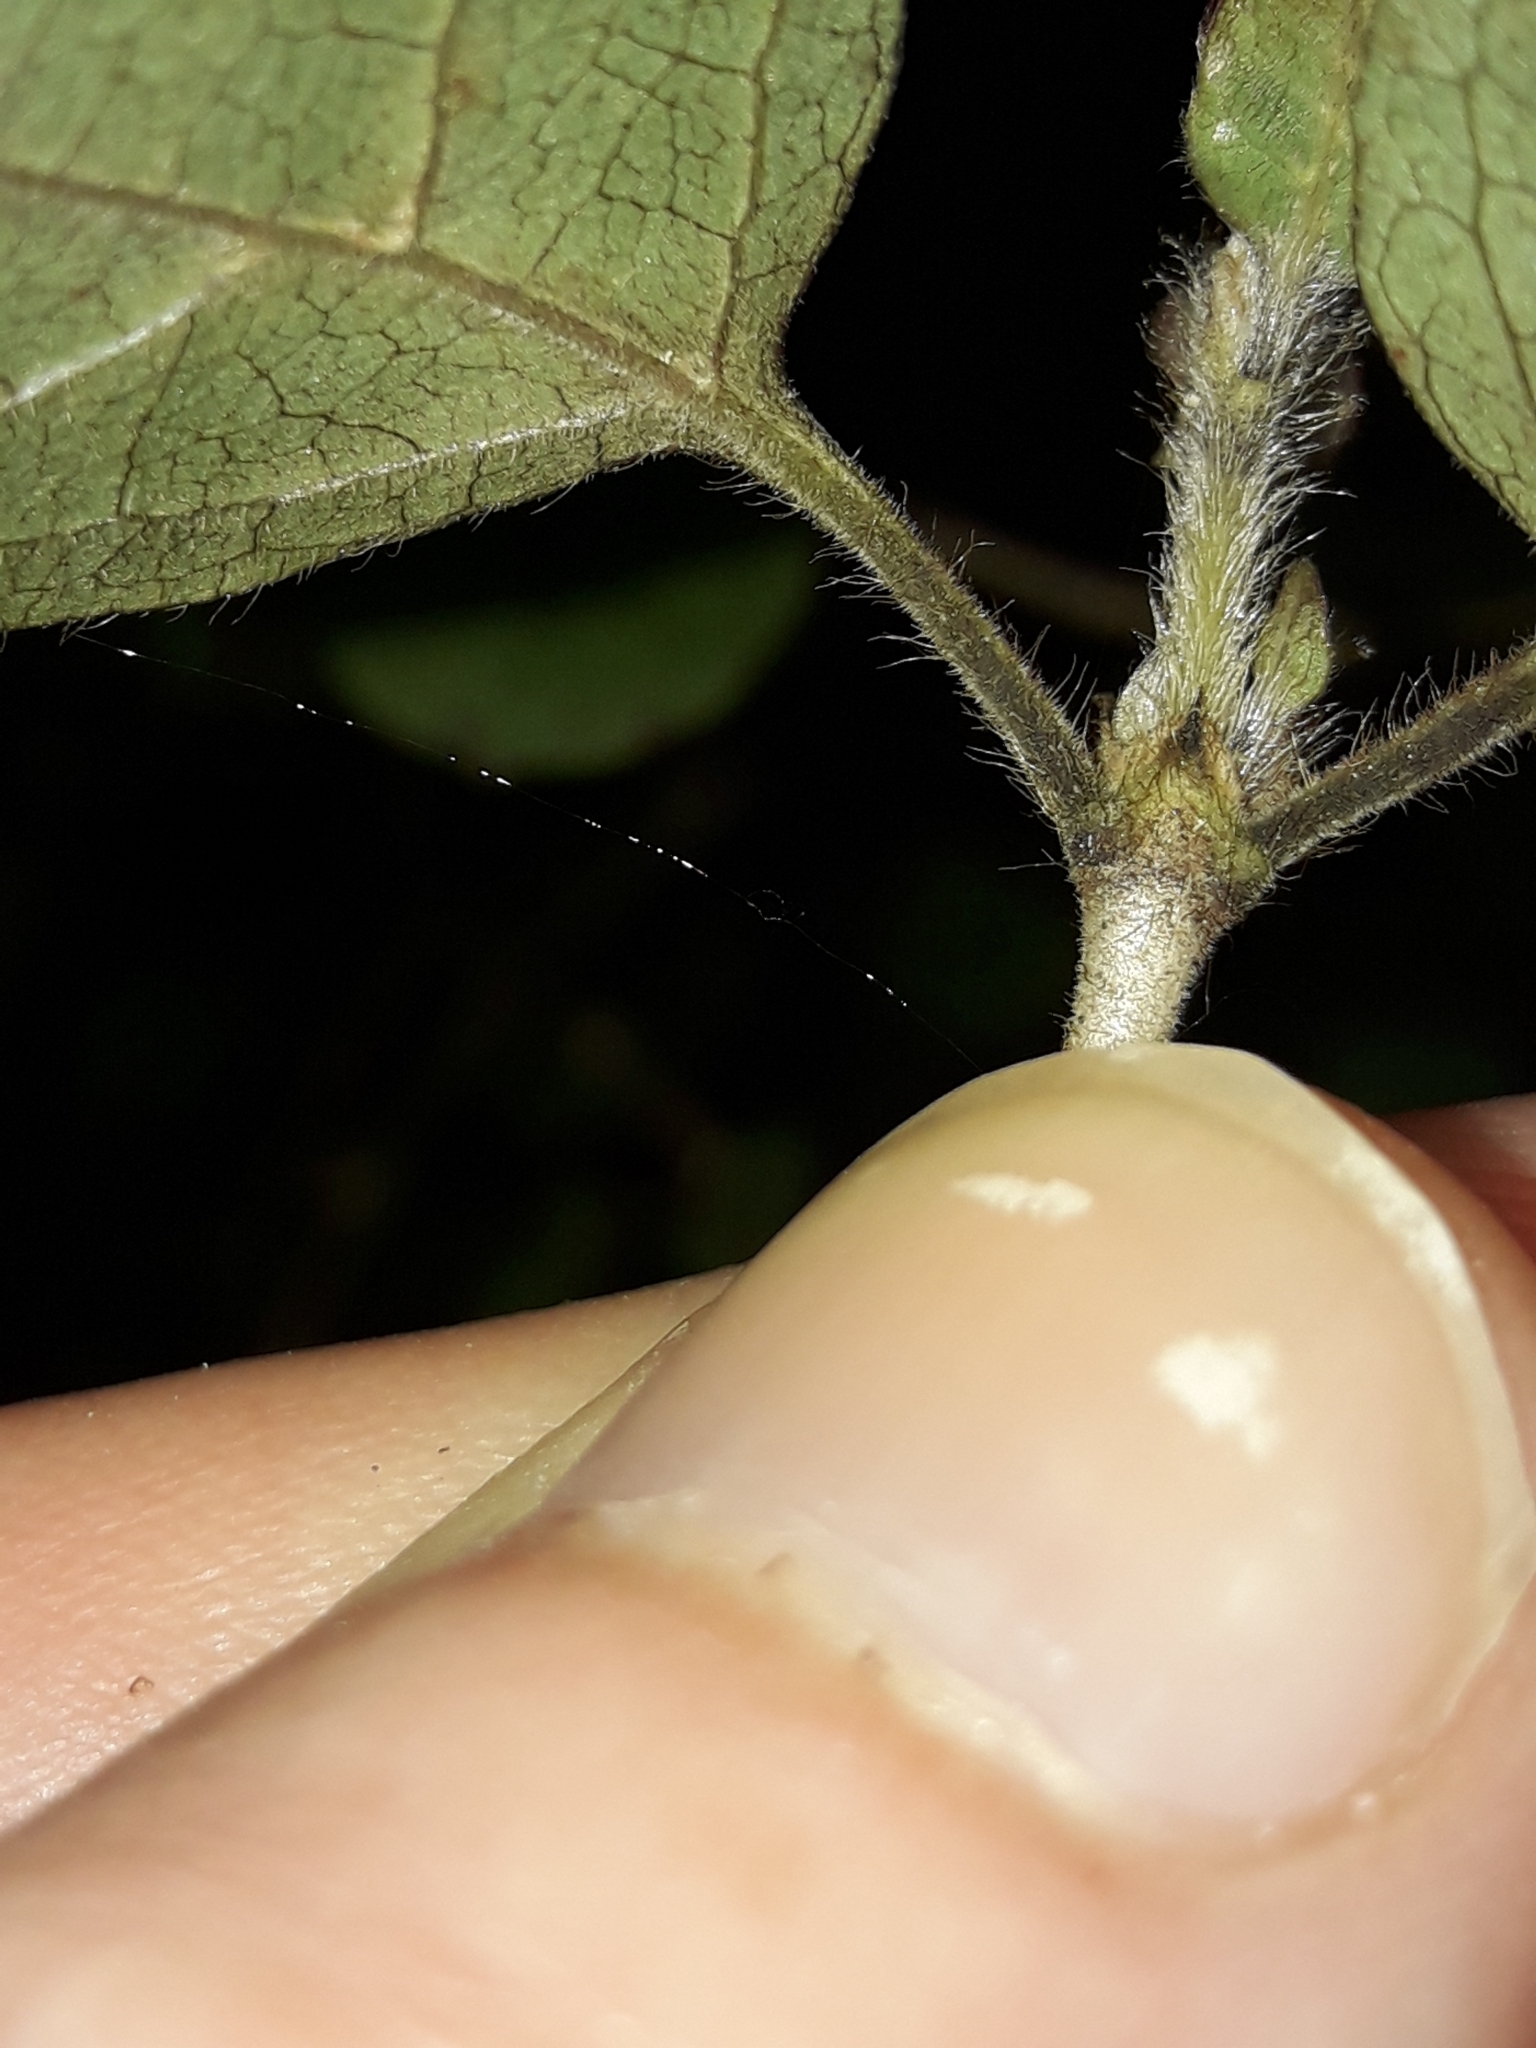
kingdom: Plantae
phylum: Tracheophyta
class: Magnoliopsida
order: Gentianales
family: Rubiaceae
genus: Coprosma
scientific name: Coprosma rotundifolia
